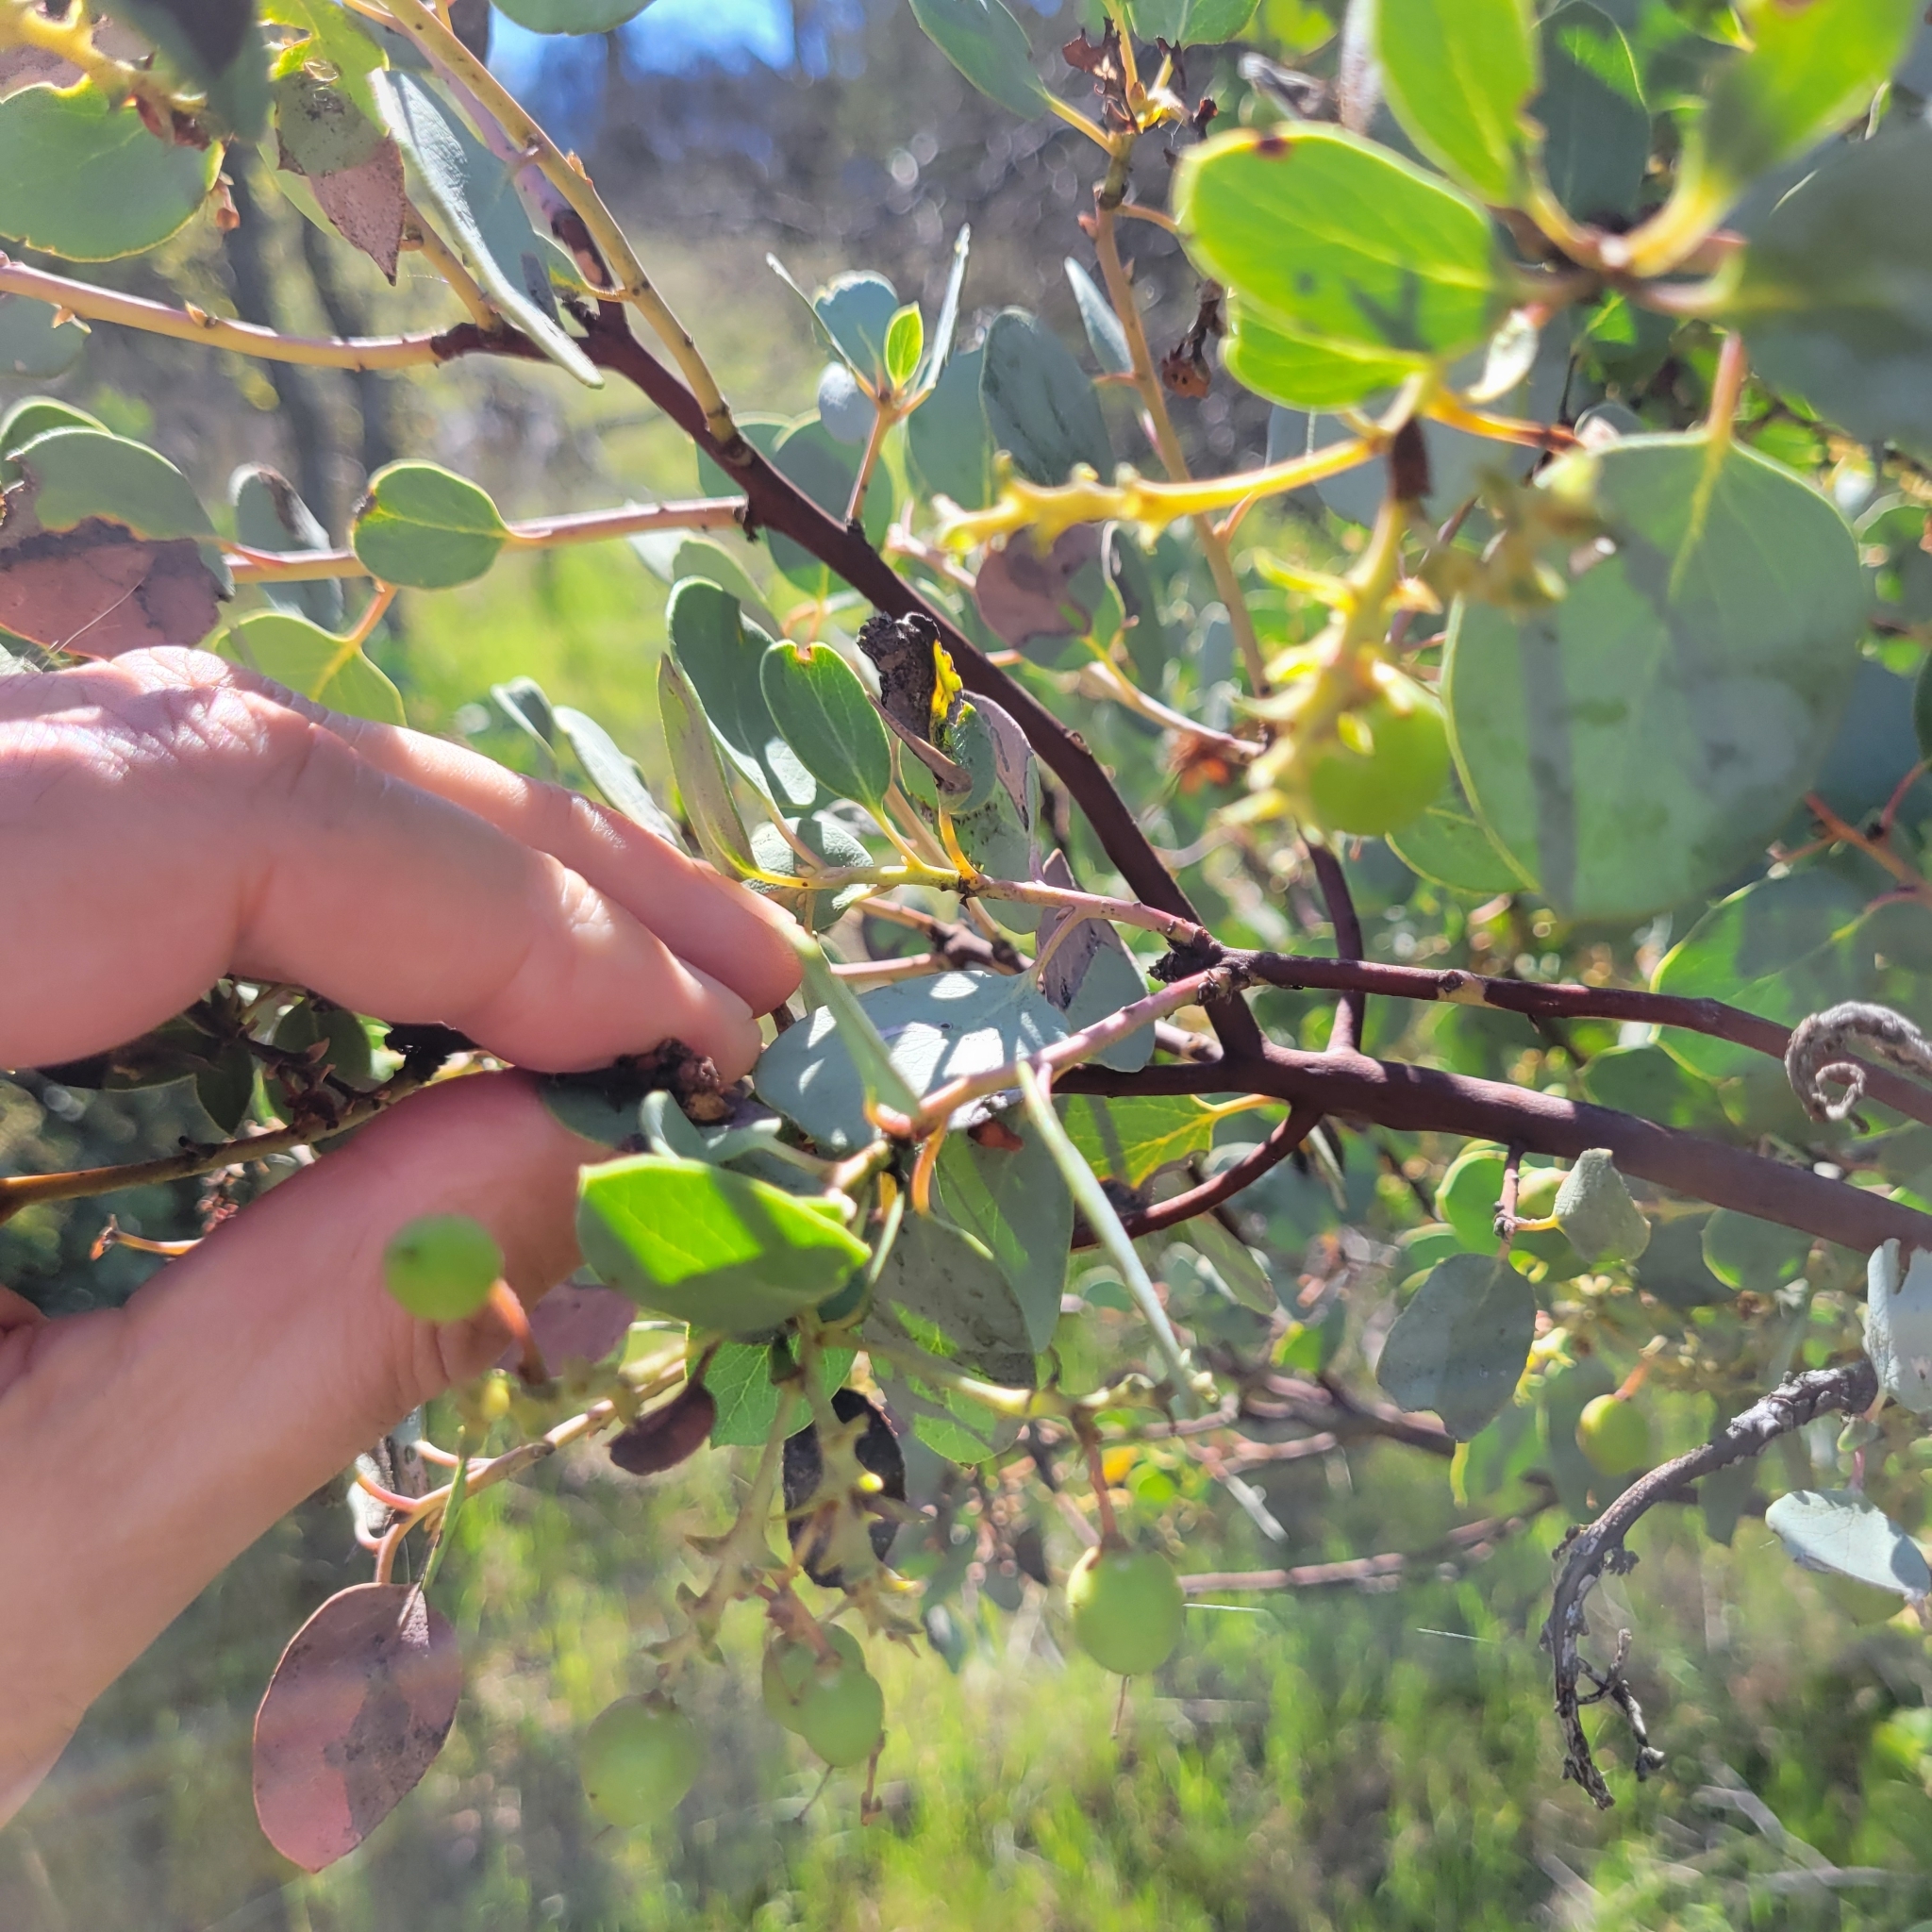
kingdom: Plantae
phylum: Tracheophyta
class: Magnoliopsida
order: Ericales
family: Ericaceae
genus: Arctostaphylos
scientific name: Arctostaphylos glauca
